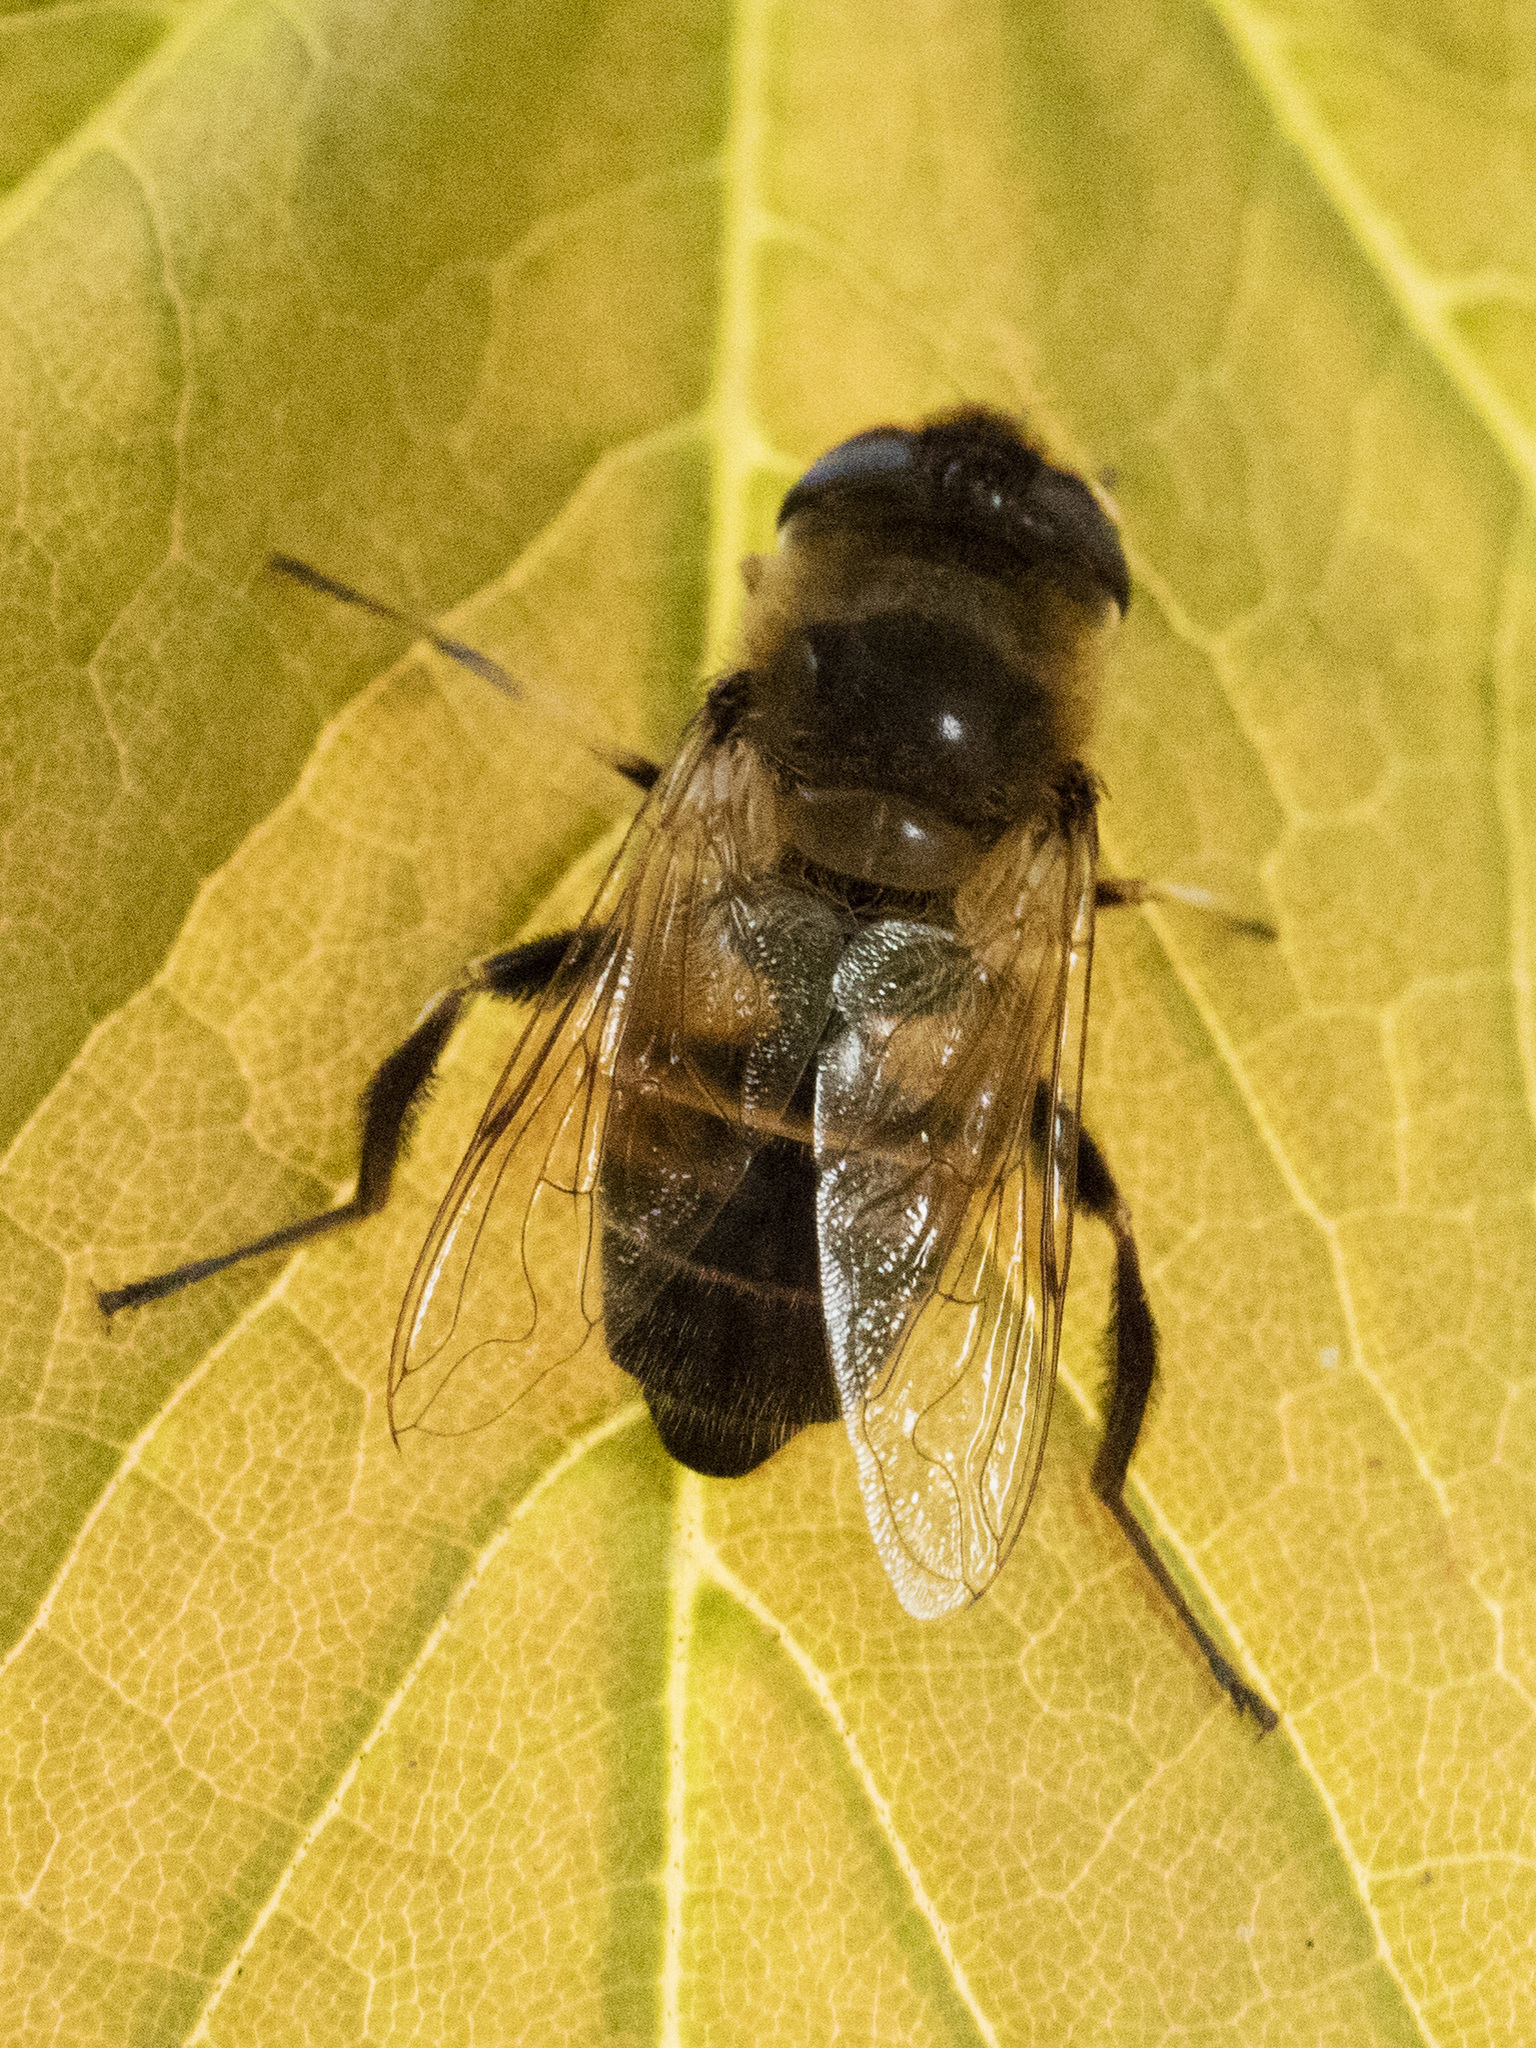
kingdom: Animalia
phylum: Arthropoda
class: Insecta
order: Diptera
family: Syrphidae
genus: Eristalis
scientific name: Eristalis tenax
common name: Drone fly
